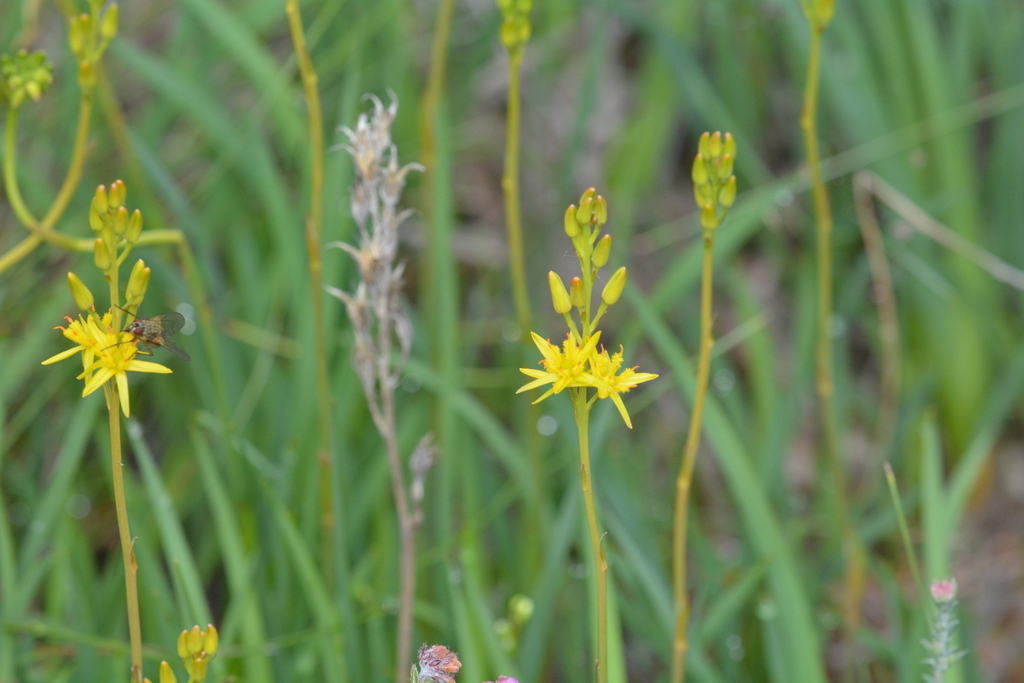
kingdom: Plantae
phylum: Tracheophyta
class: Liliopsida
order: Dioscoreales
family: Nartheciaceae
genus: Narthecium
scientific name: Narthecium ossifragum
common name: Bog asphodel
